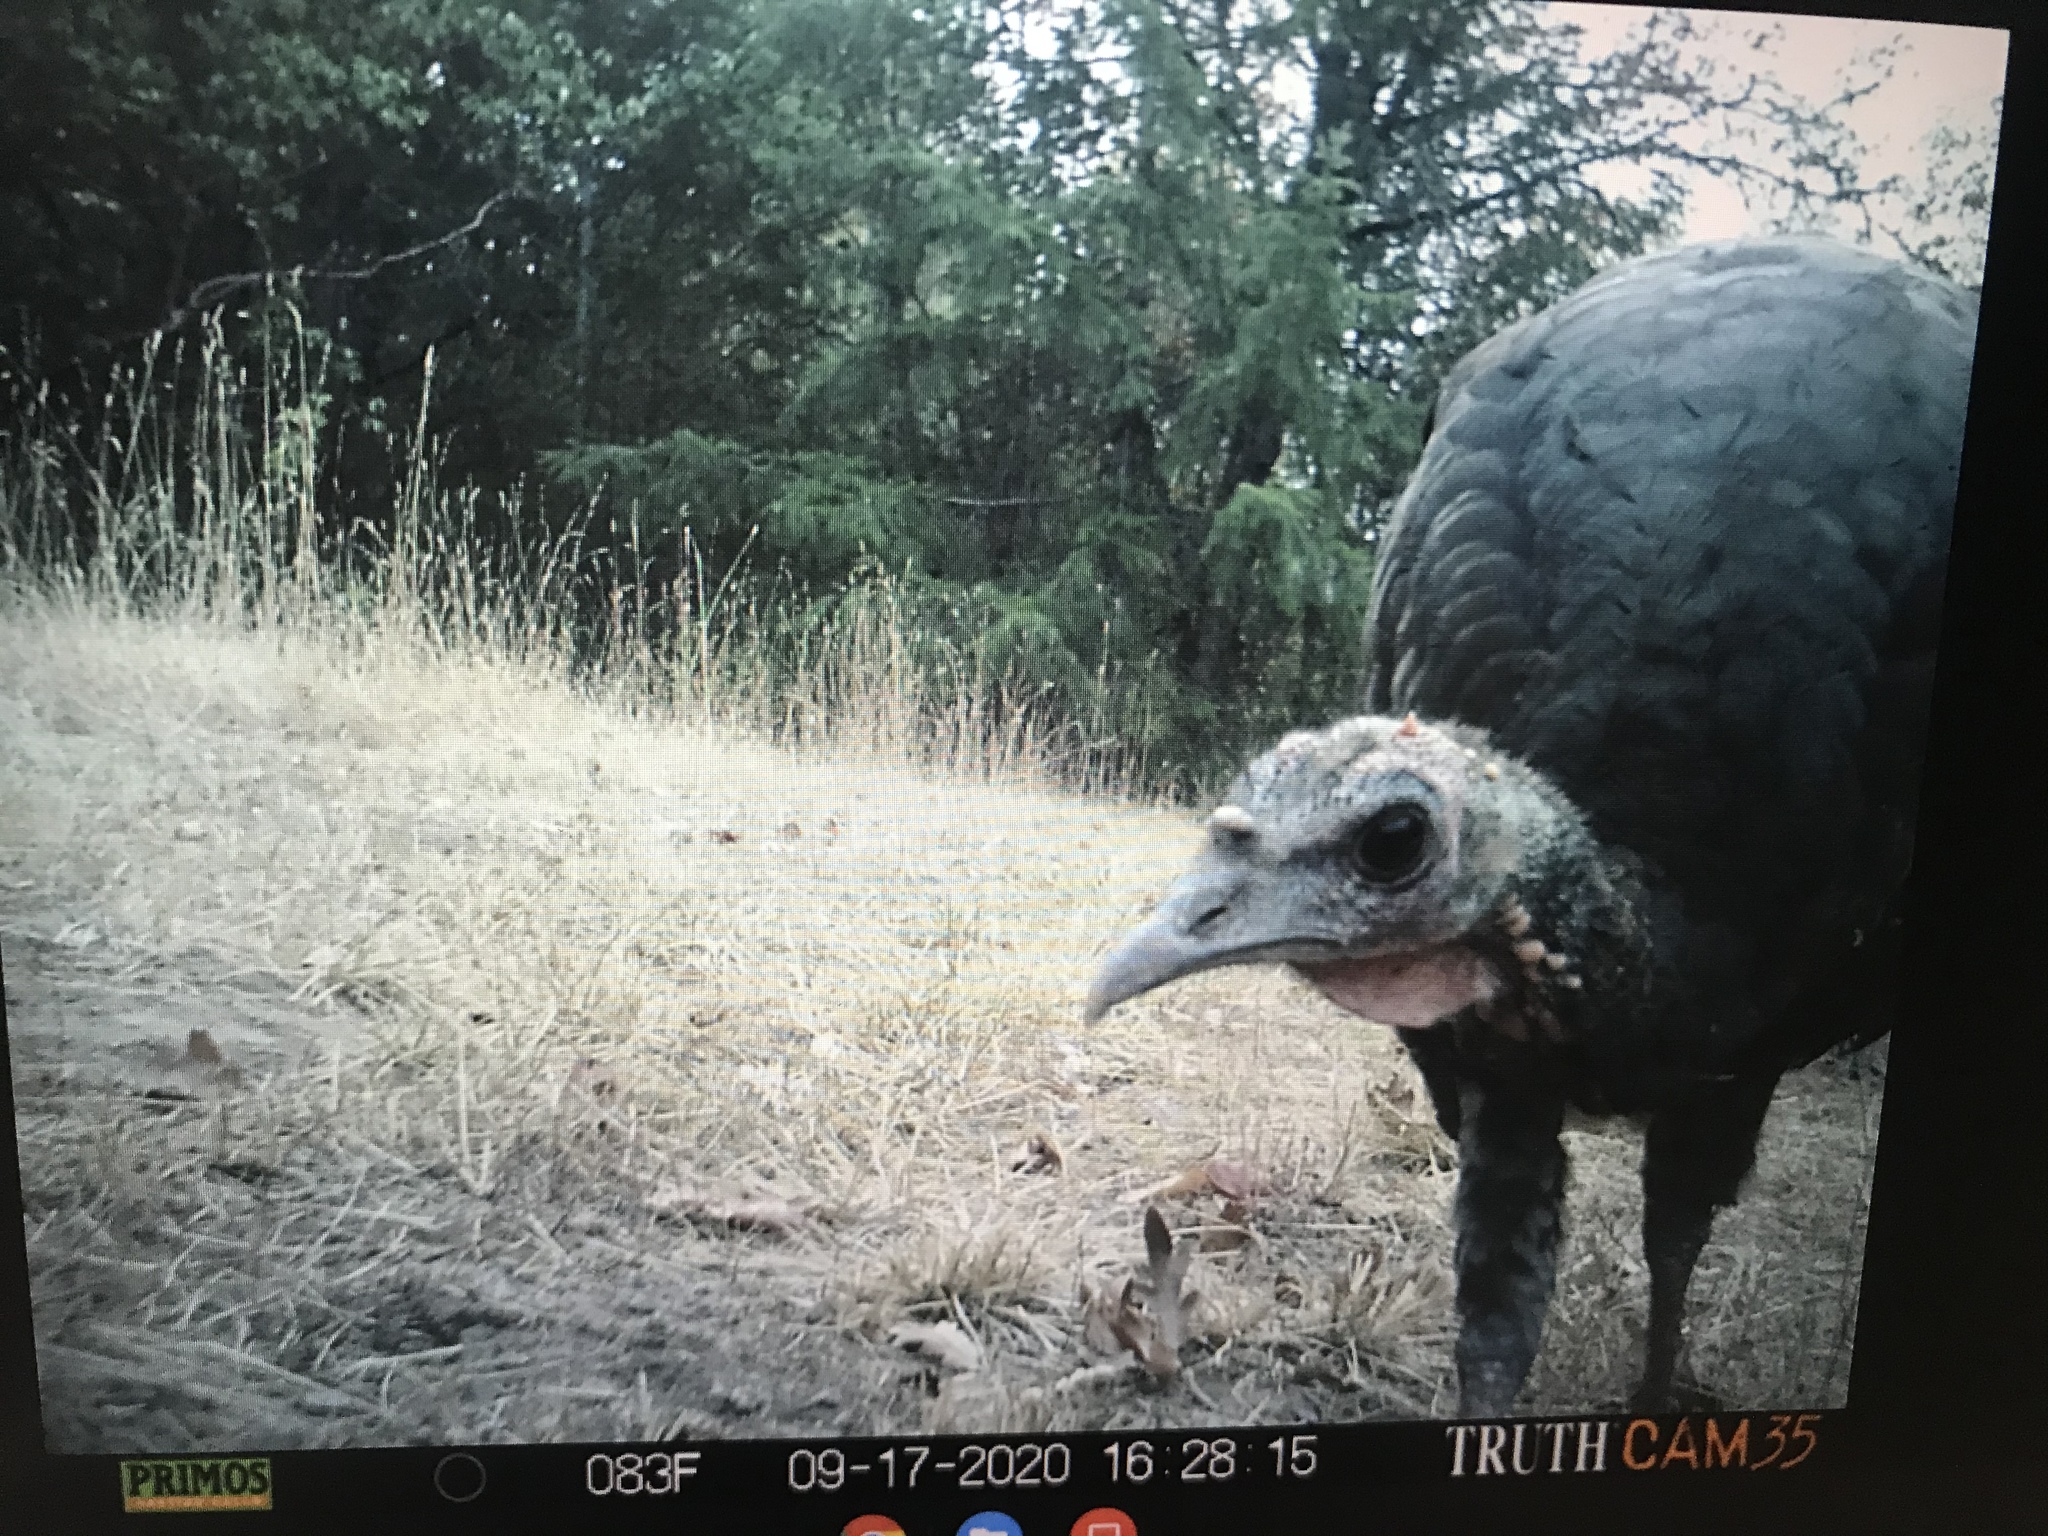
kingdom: Animalia
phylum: Chordata
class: Aves
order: Galliformes
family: Phasianidae
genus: Meleagris
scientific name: Meleagris gallopavo
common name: Wild turkey
